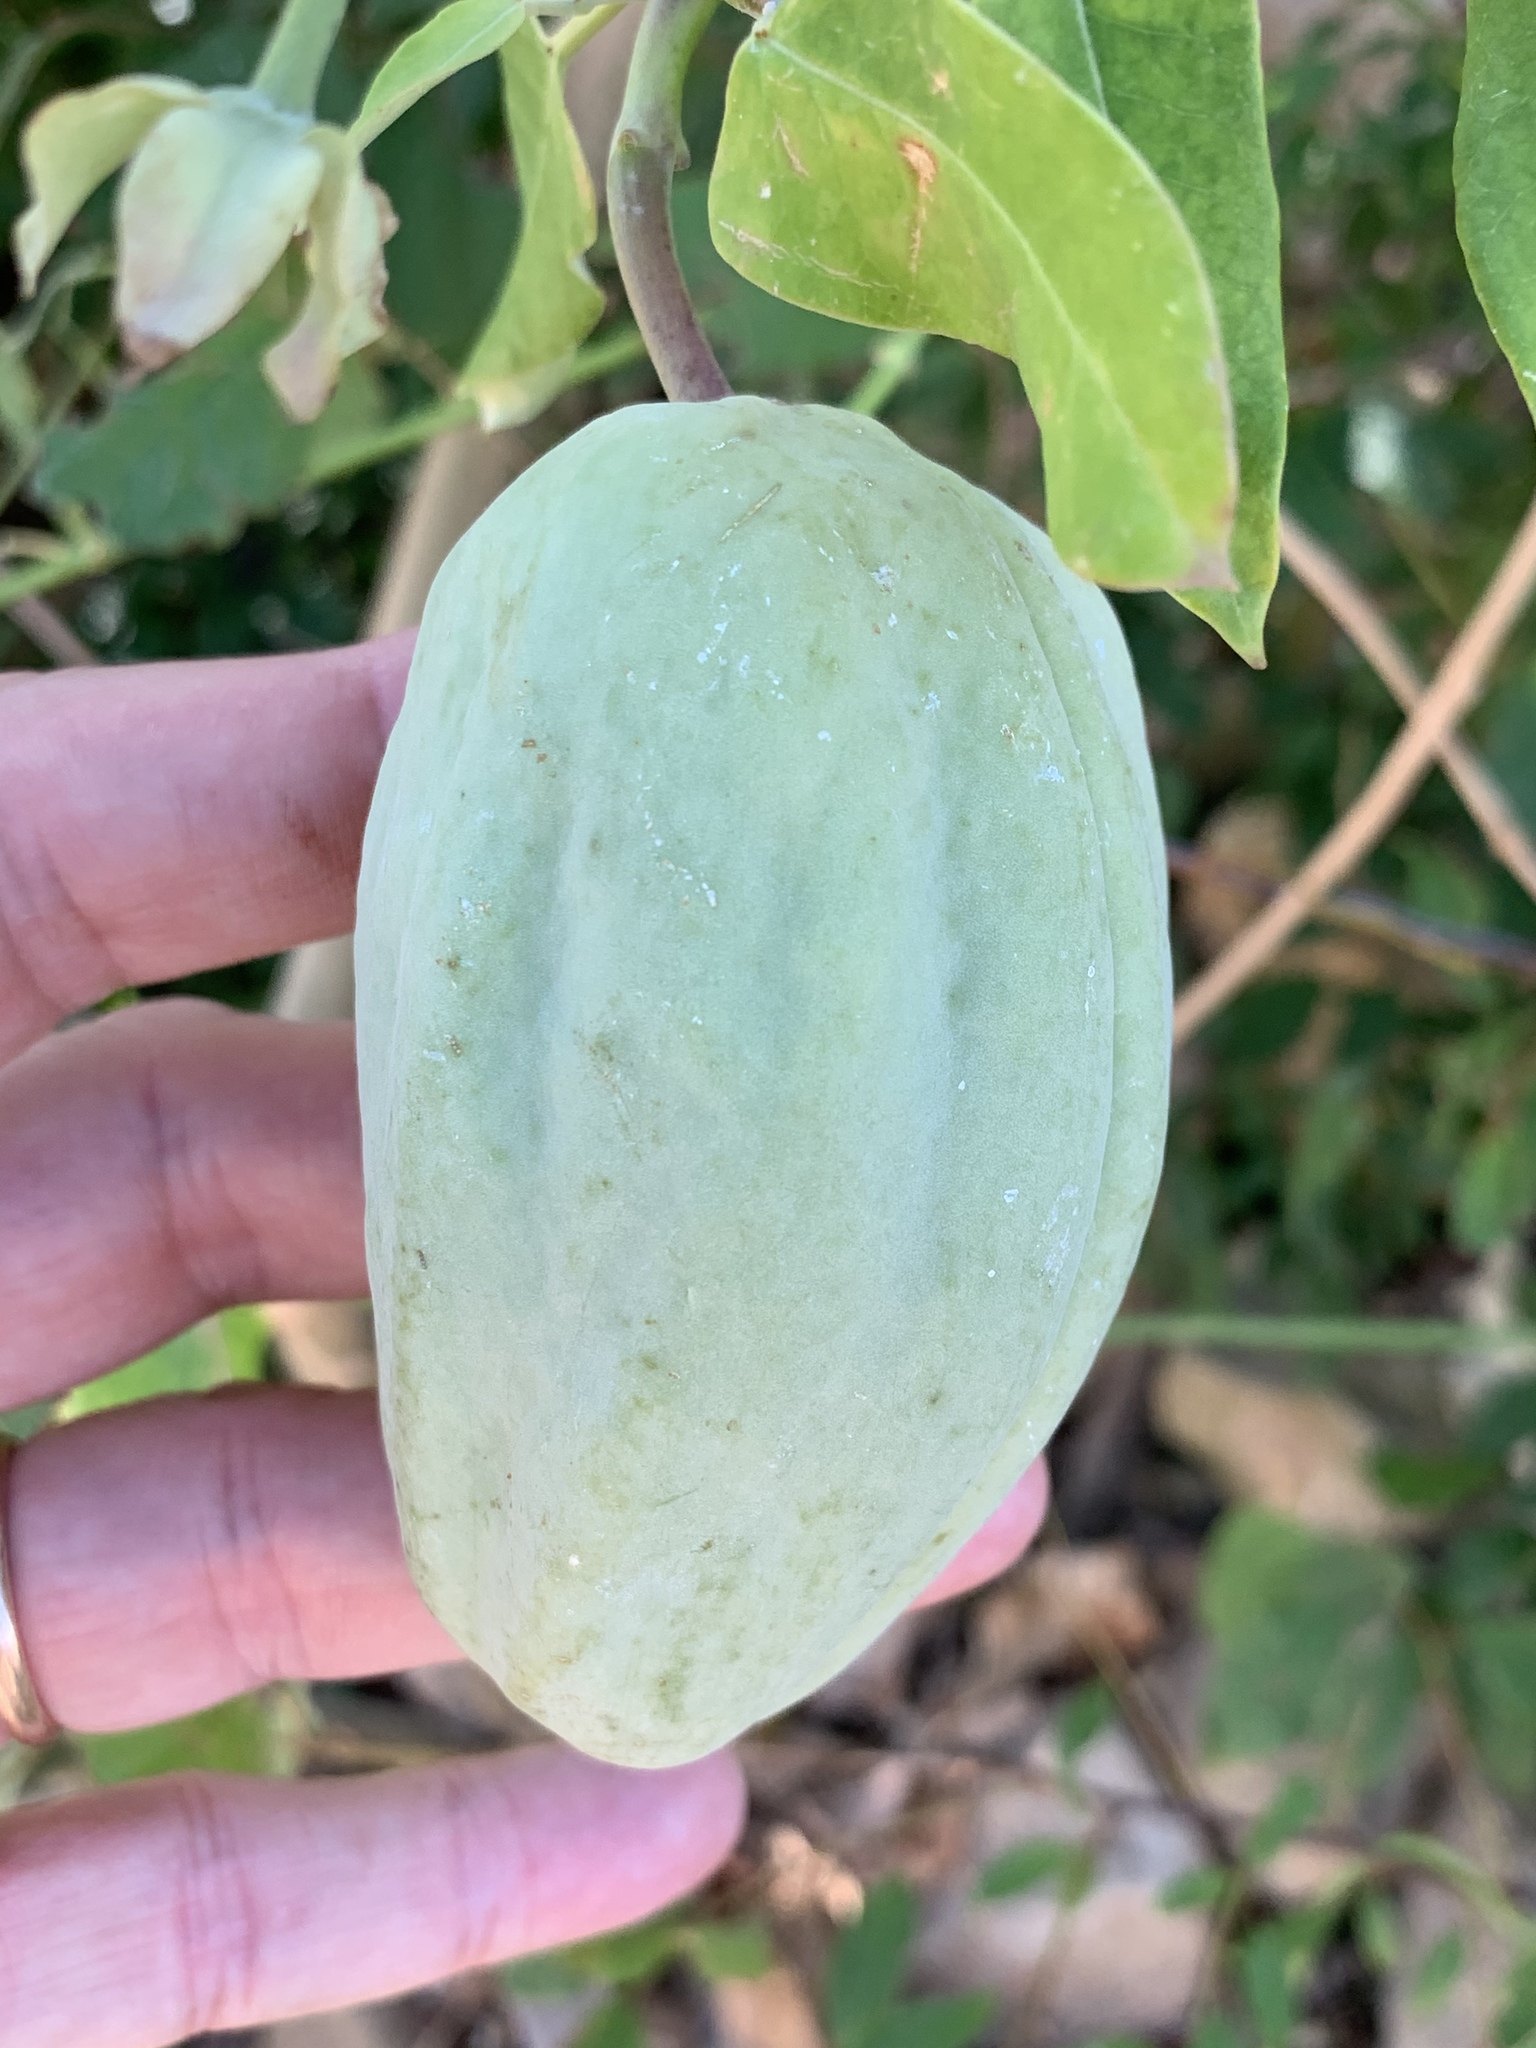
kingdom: Plantae
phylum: Tracheophyta
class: Magnoliopsida
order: Gentianales
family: Apocynaceae
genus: Araujia
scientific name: Araujia sericifera
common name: White bladderflower
